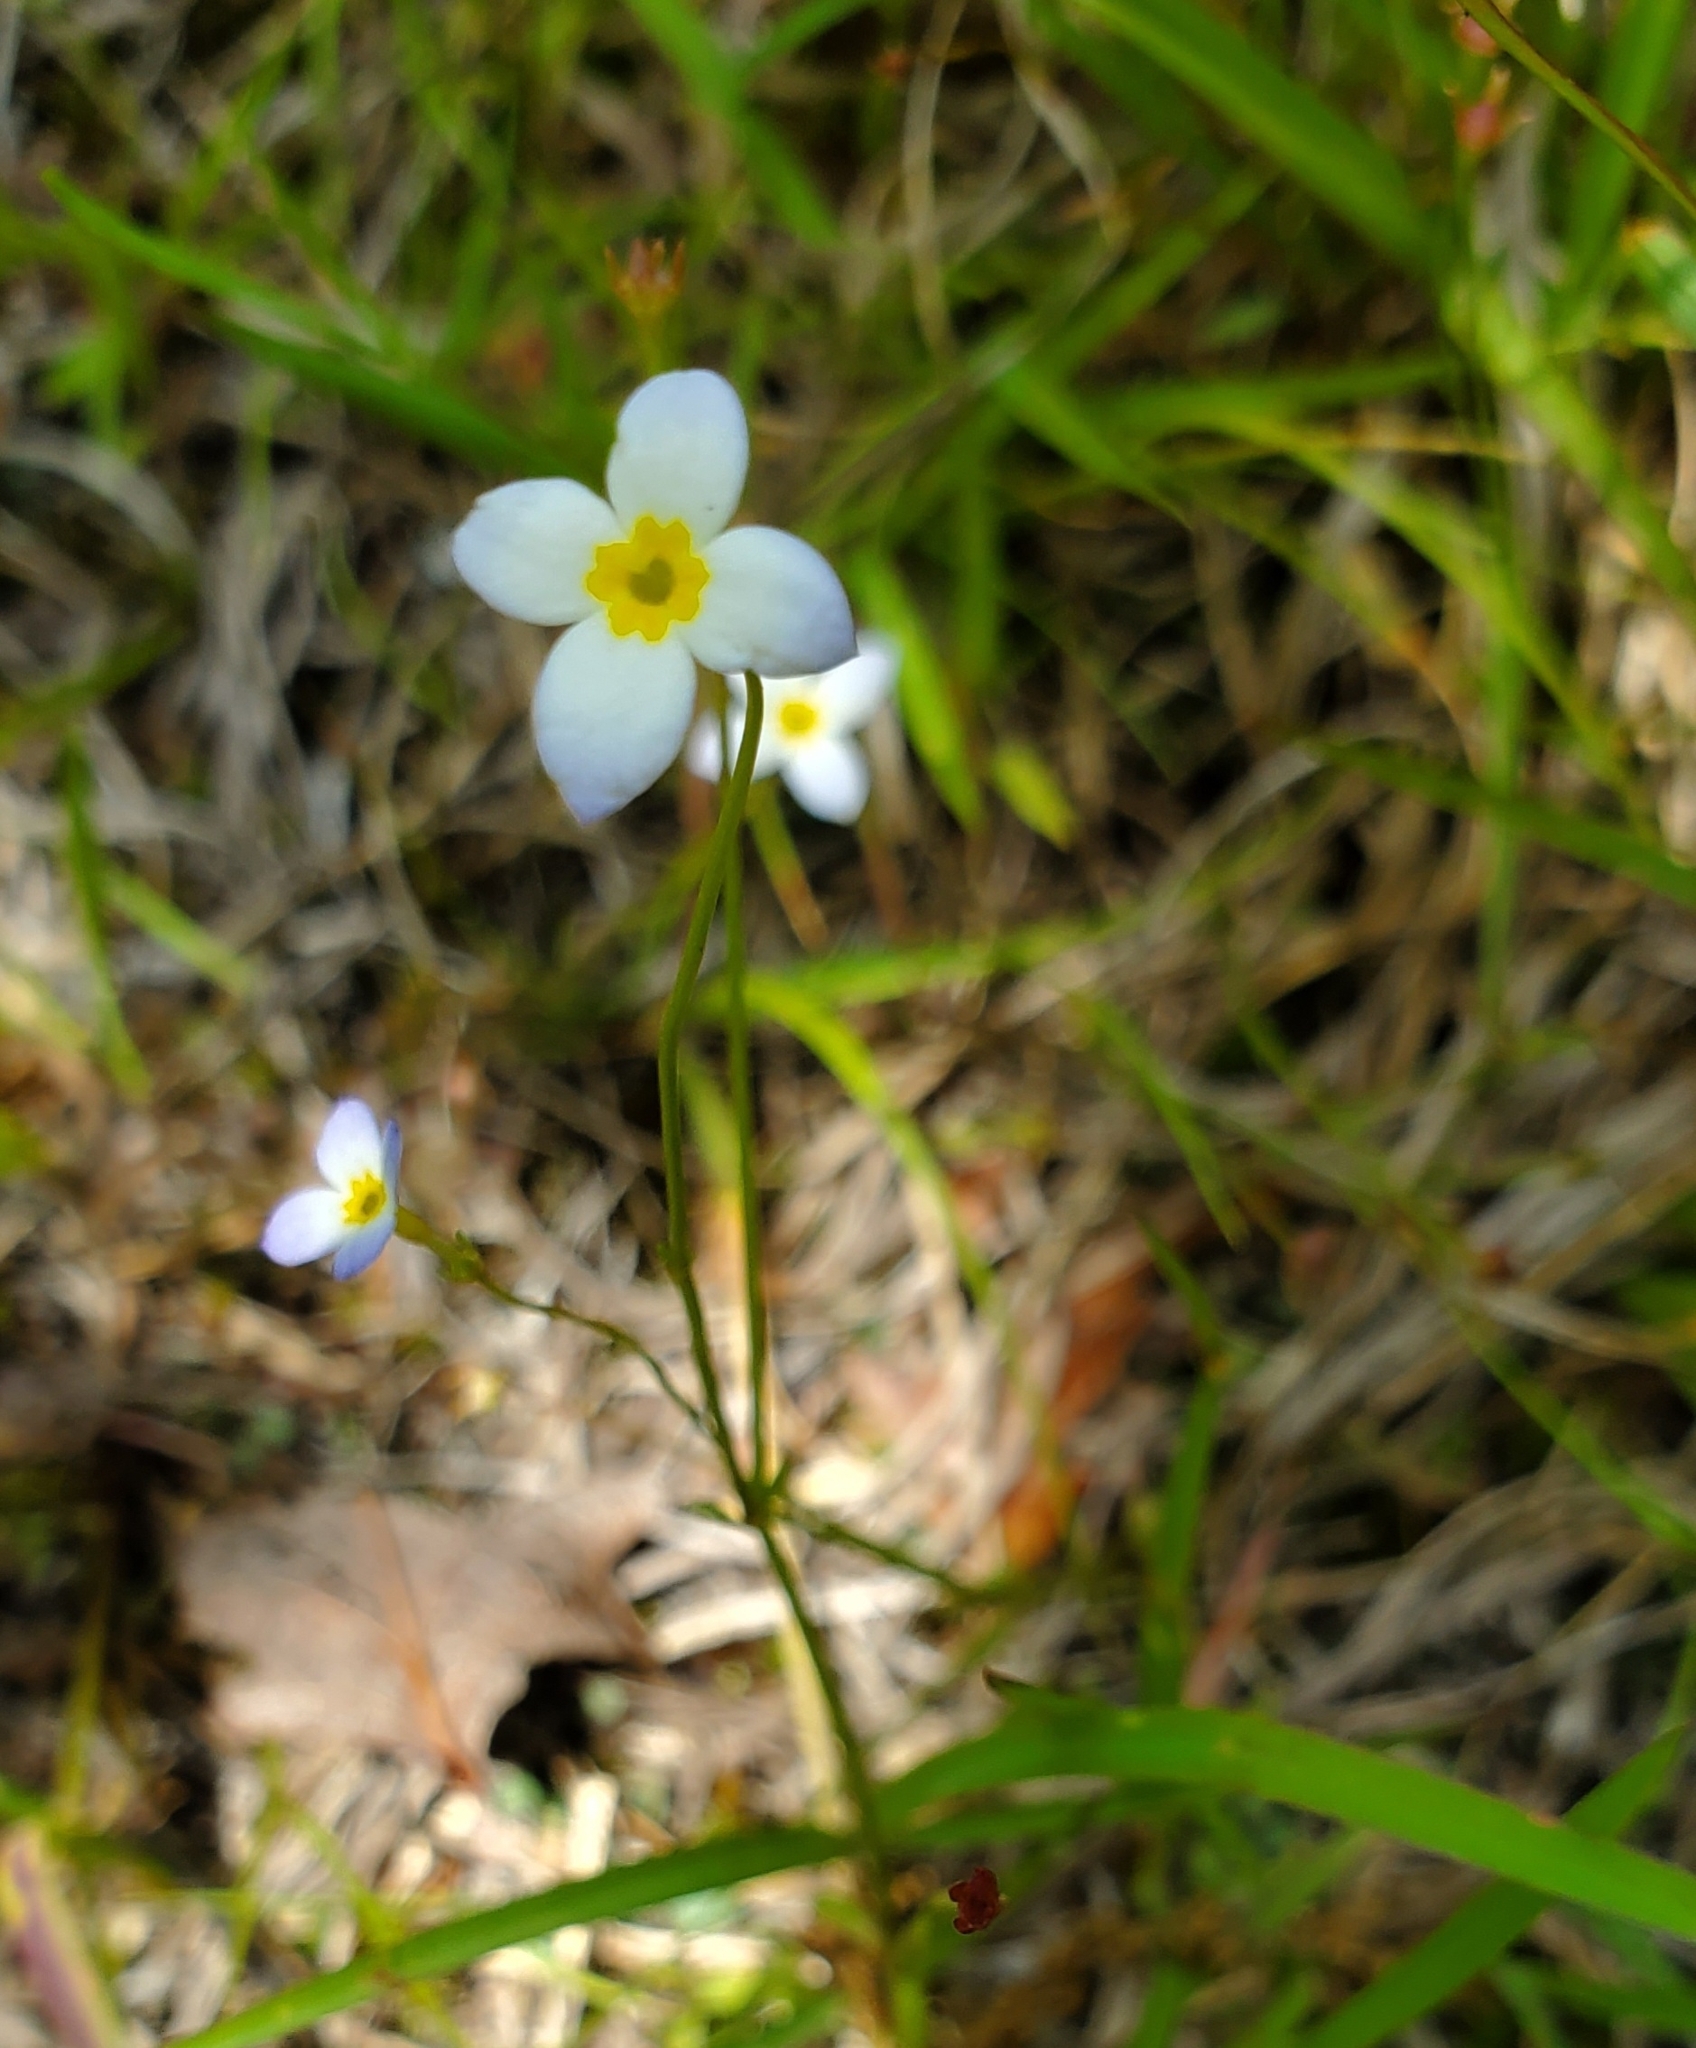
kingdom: Plantae
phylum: Tracheophyta
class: Magnoliopsida
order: Gentianales
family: Rubiaceae
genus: Houstonia
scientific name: Houstonia caerulea
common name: Bluets
